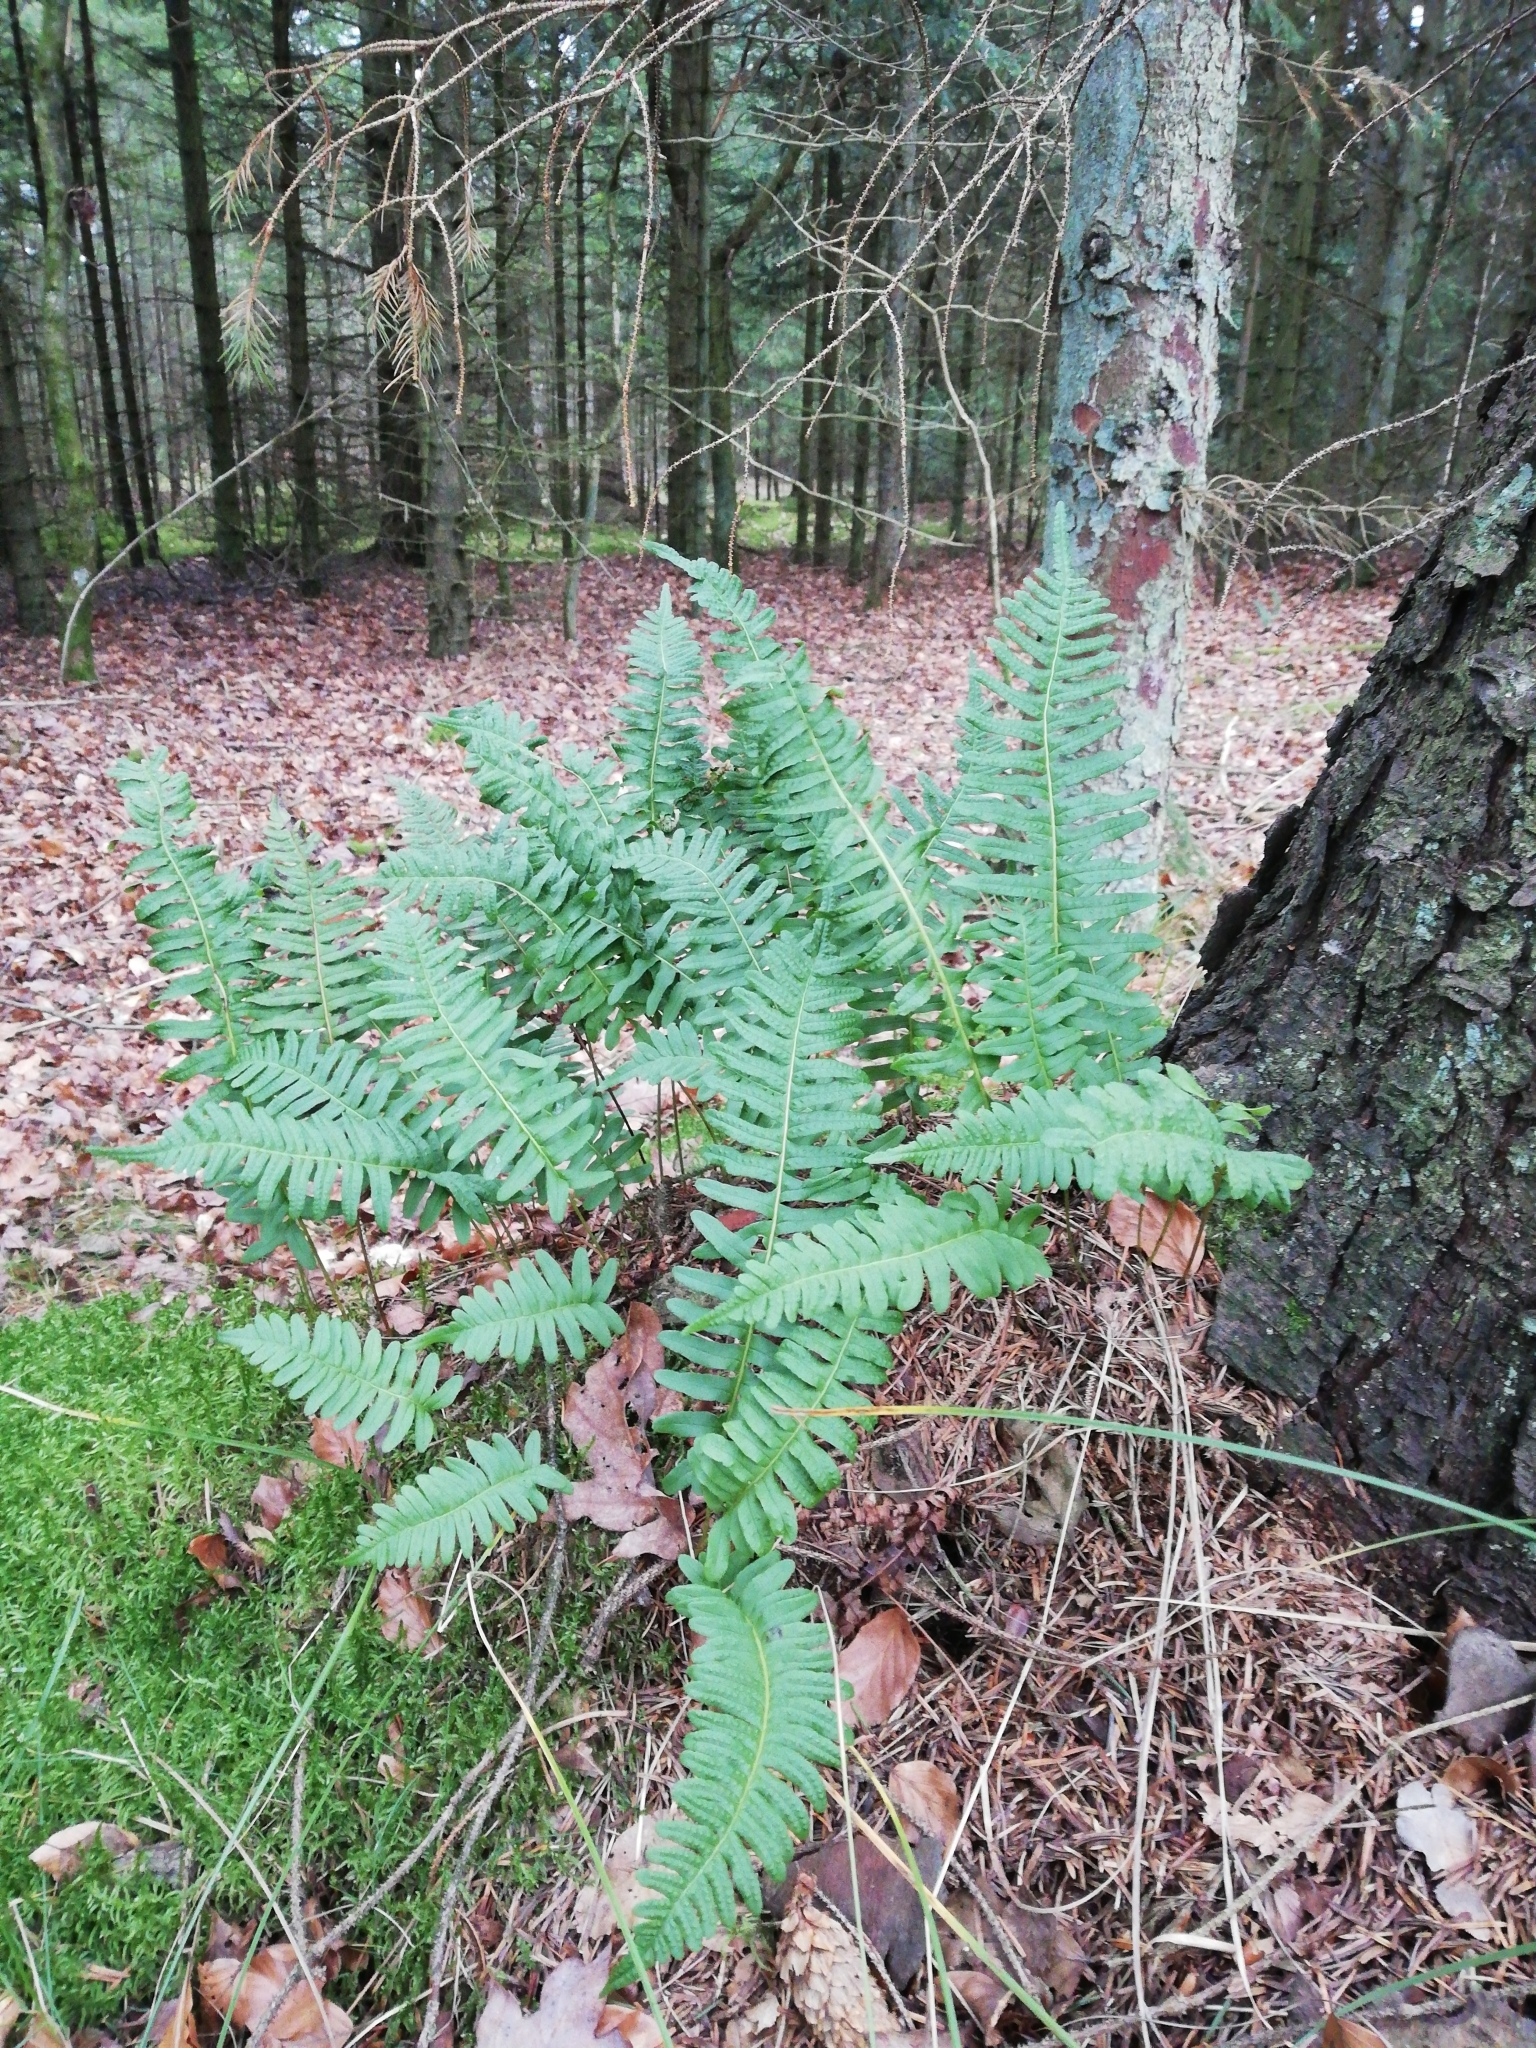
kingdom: Plantae
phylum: Tracheophyta
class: Polypodiopsida
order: Polypodiales
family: Polypodiaceae
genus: Polypodium
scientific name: Polypodium vulgare
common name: Common polypody
